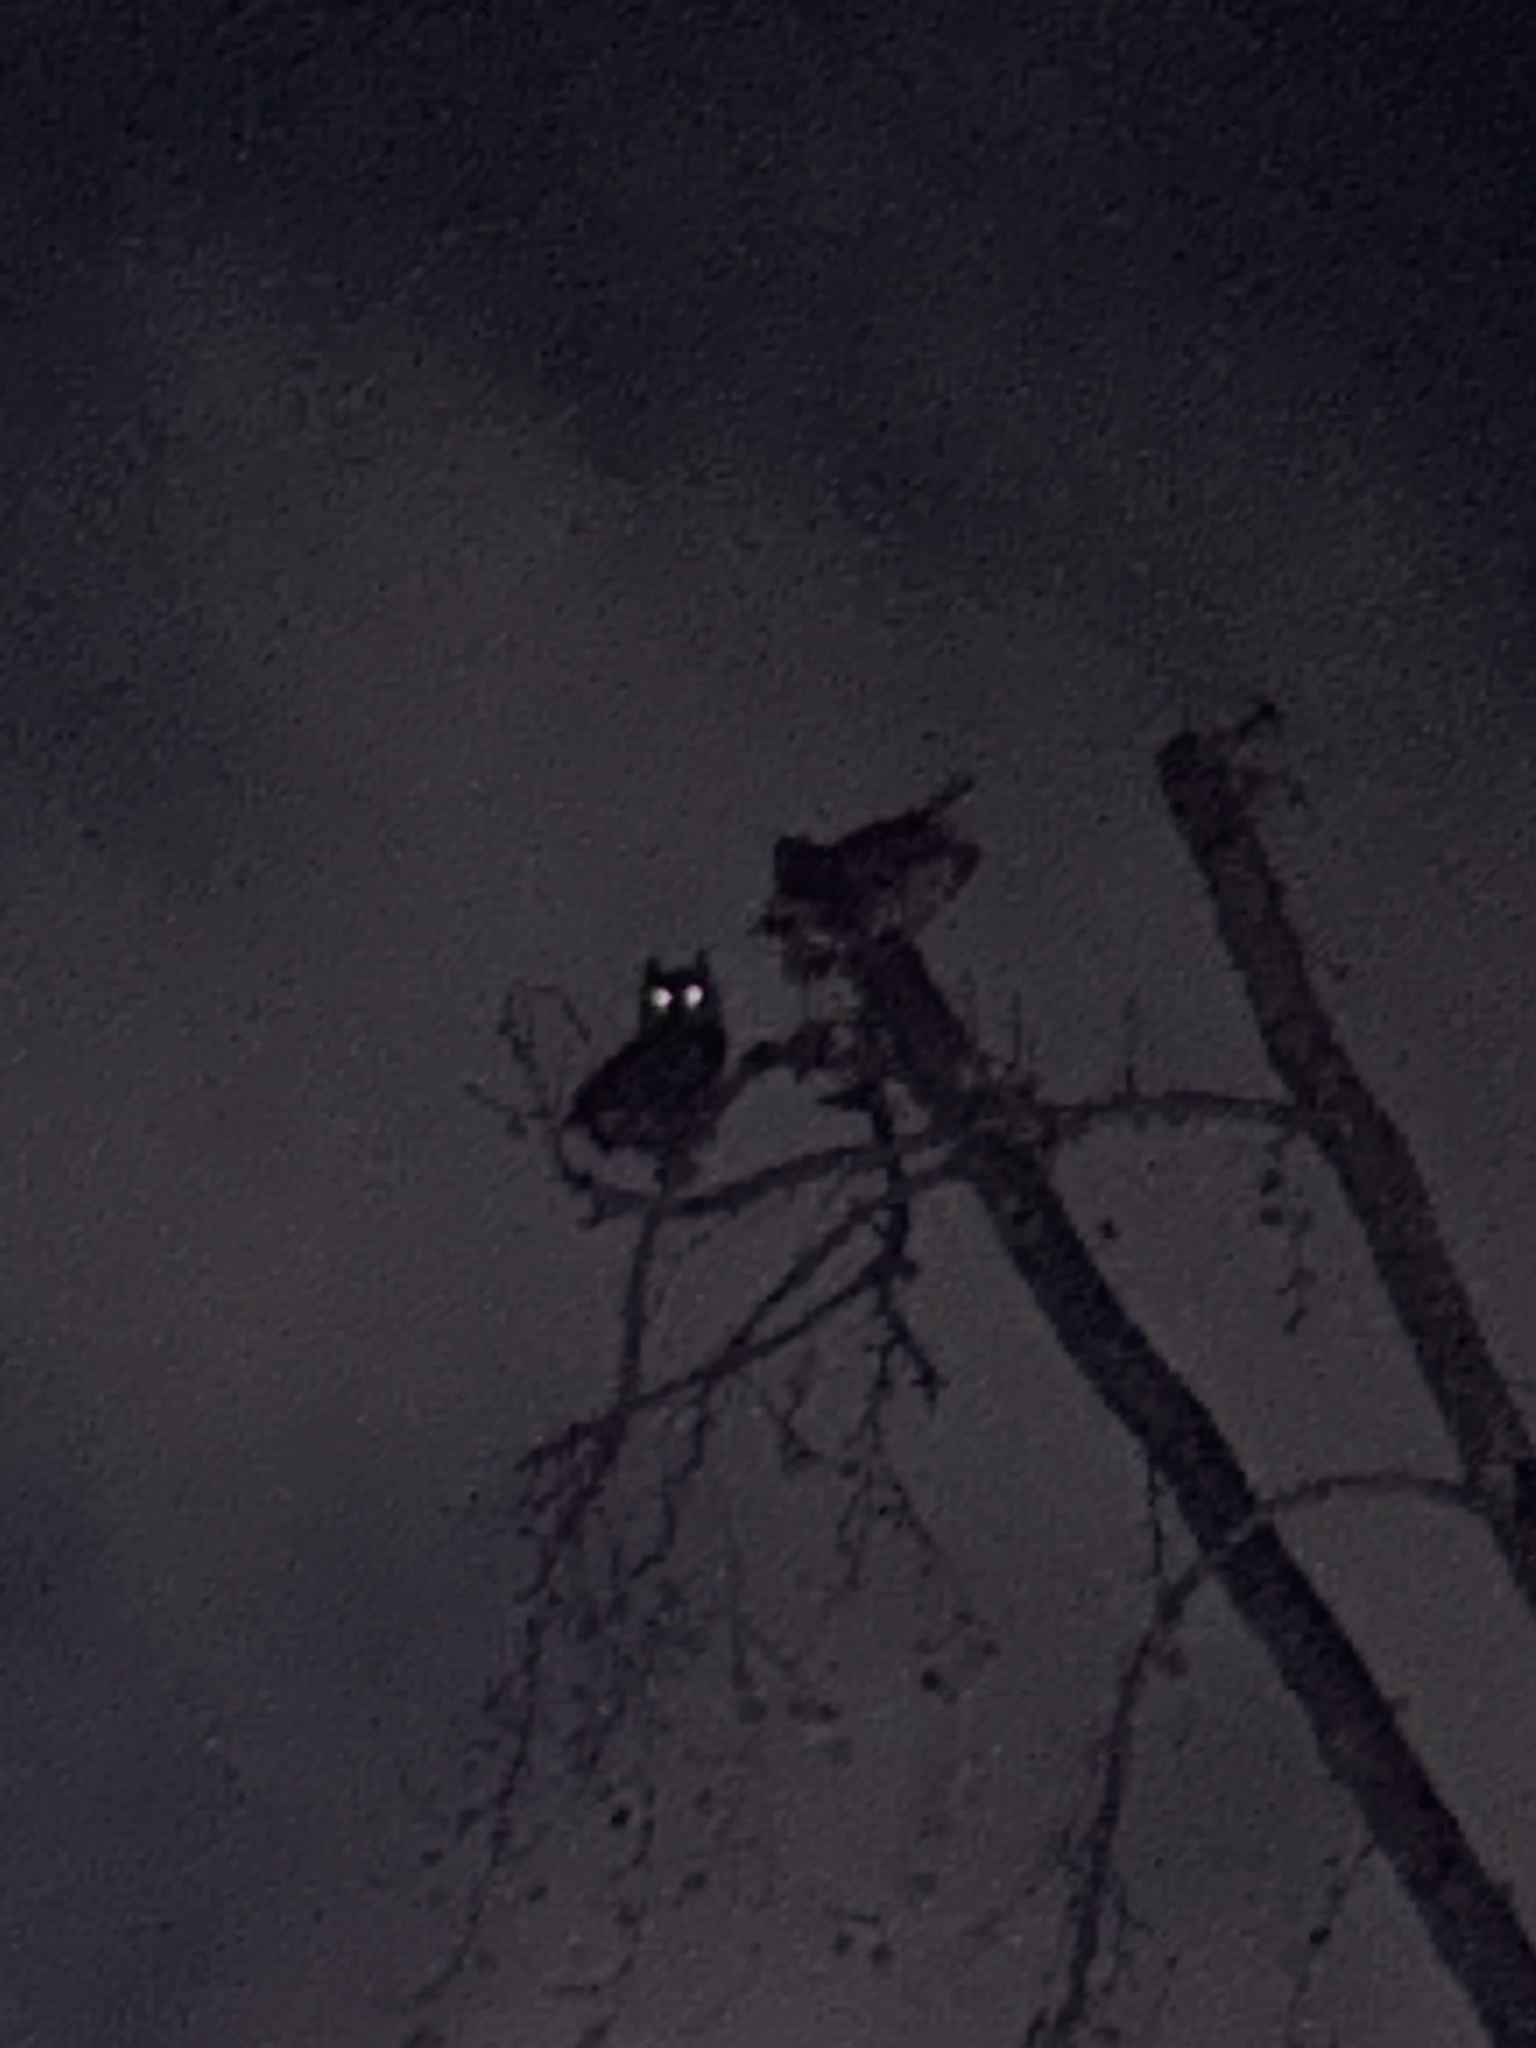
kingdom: Animalia
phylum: Chordata
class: Aves
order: Strigiformes
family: Strigidae
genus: Bubo
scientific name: Bubo virginianus
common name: Great horned owl
